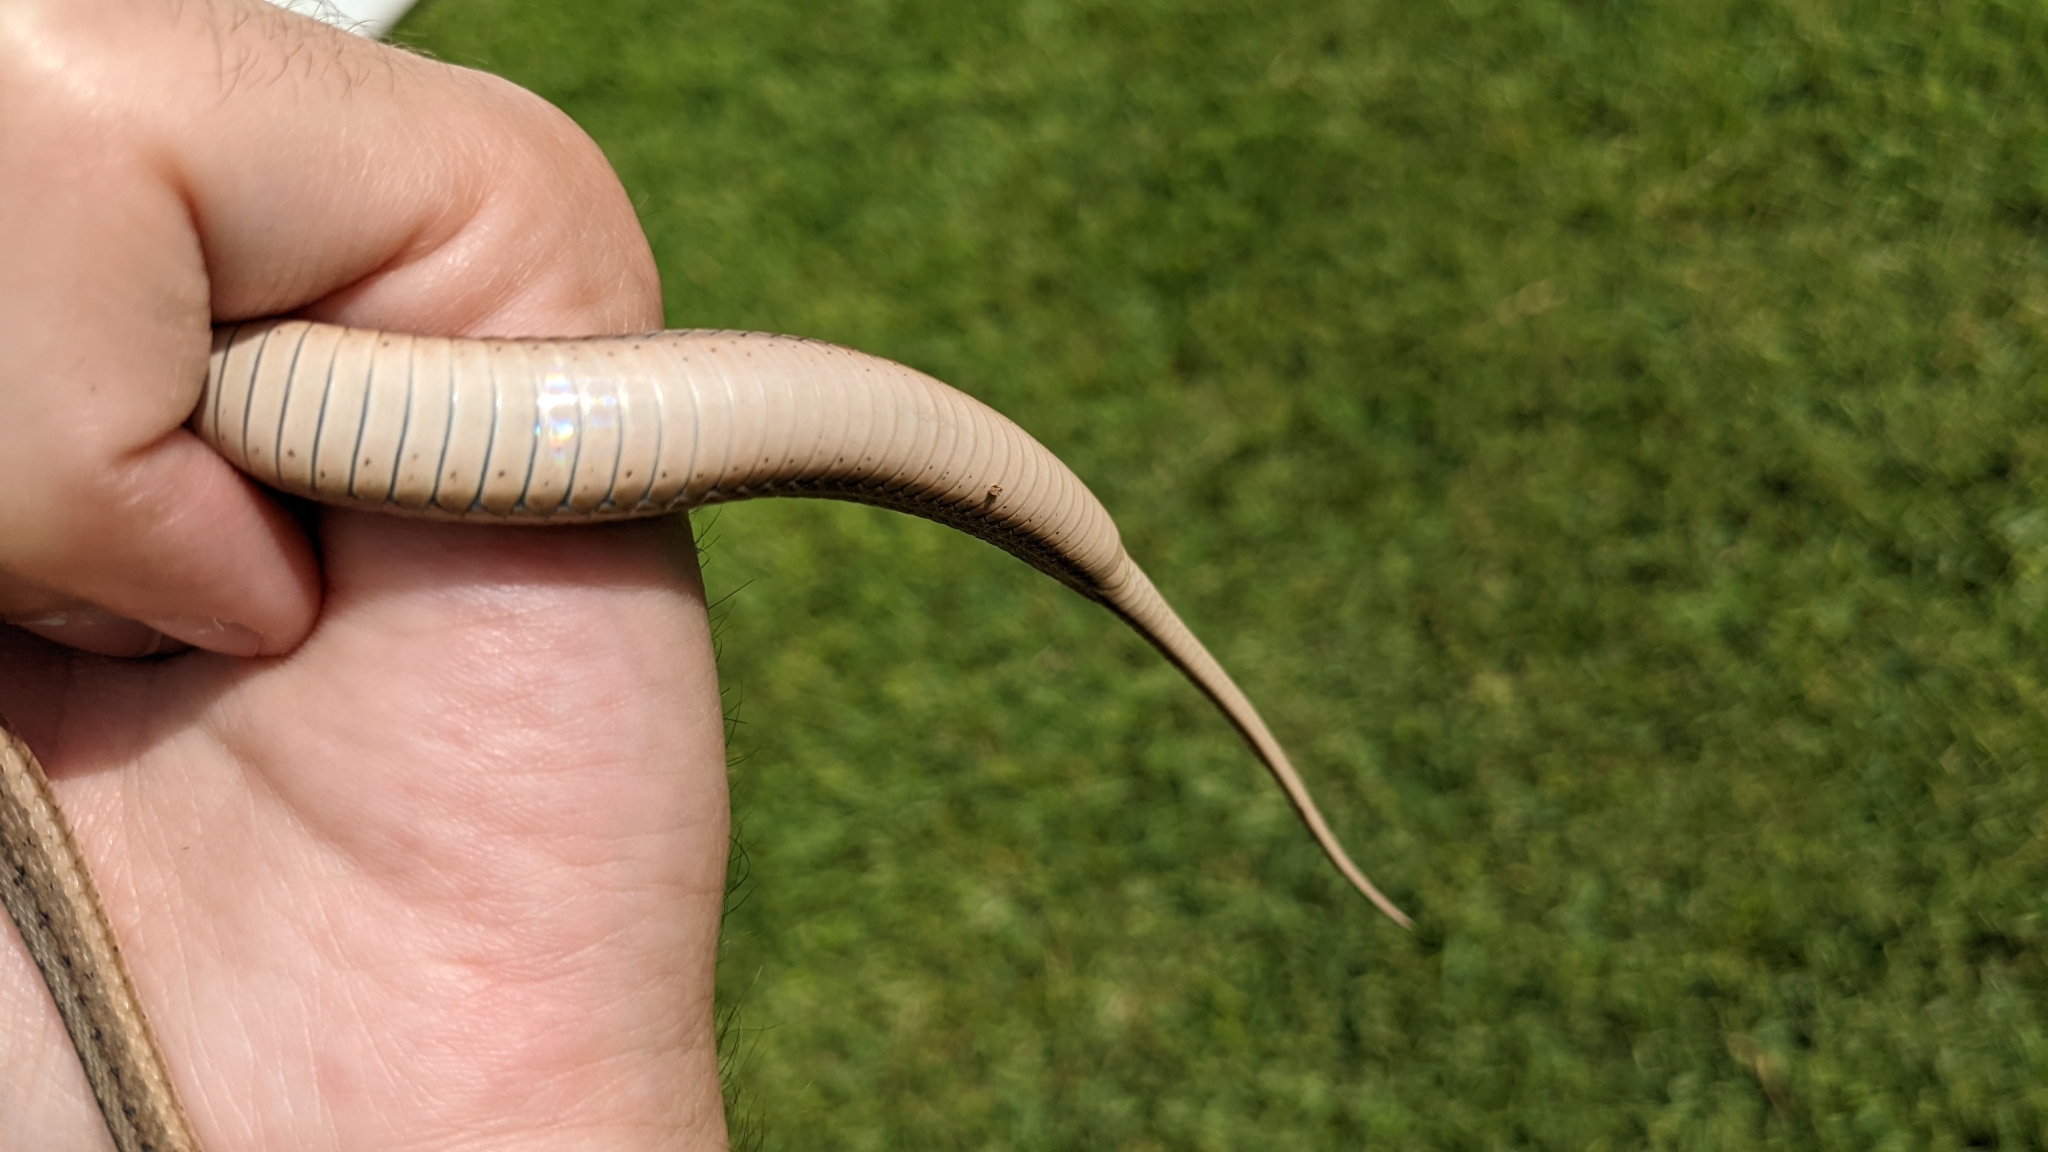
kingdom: Animalia
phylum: Chordata
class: Squamata
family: Colubridae
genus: Storeria
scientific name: Storeria dekayi
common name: (dekay’s) brown snake
